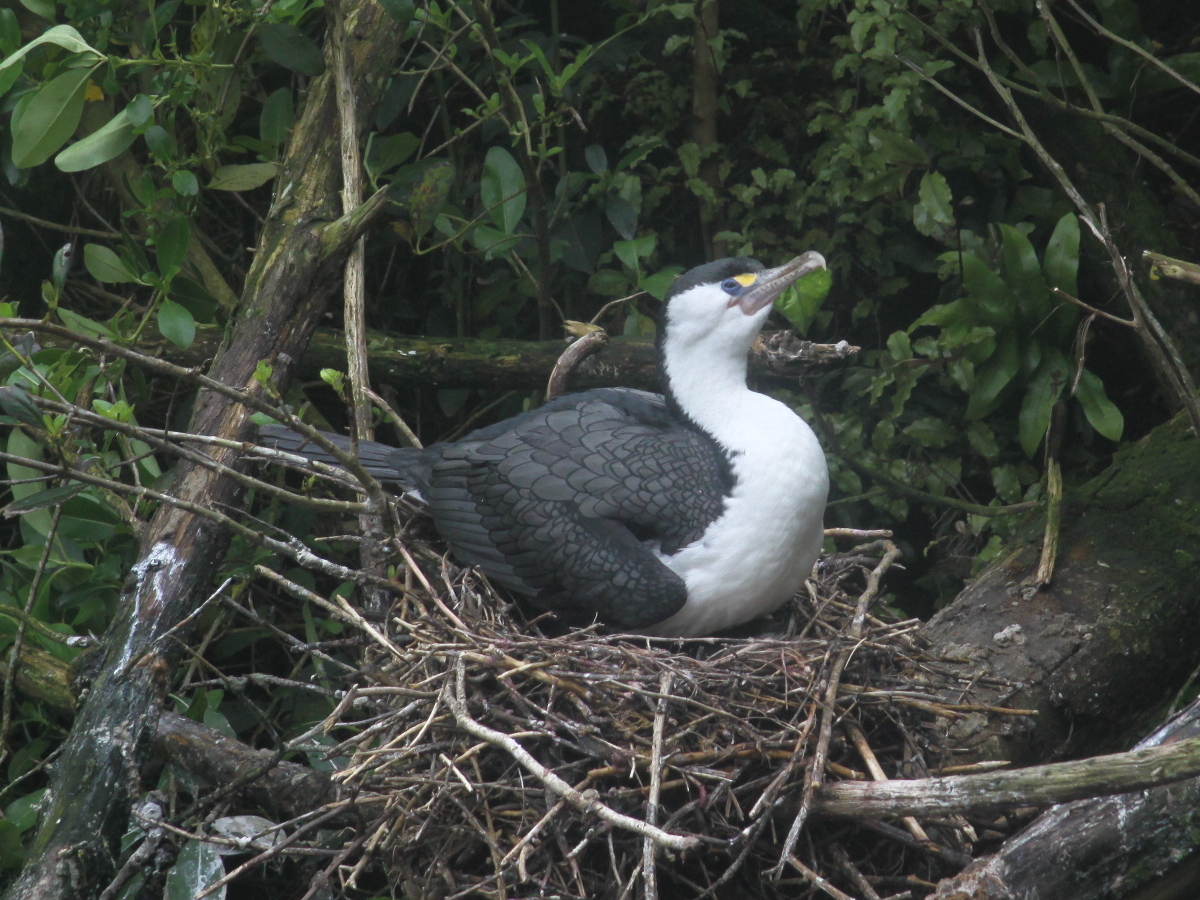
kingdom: Animalia
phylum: Chordata
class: Aves
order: Suliformes
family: Phalacrocoracidae
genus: Phalacrocorax
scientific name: Phalacrocorax varius
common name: Pied cormorant
